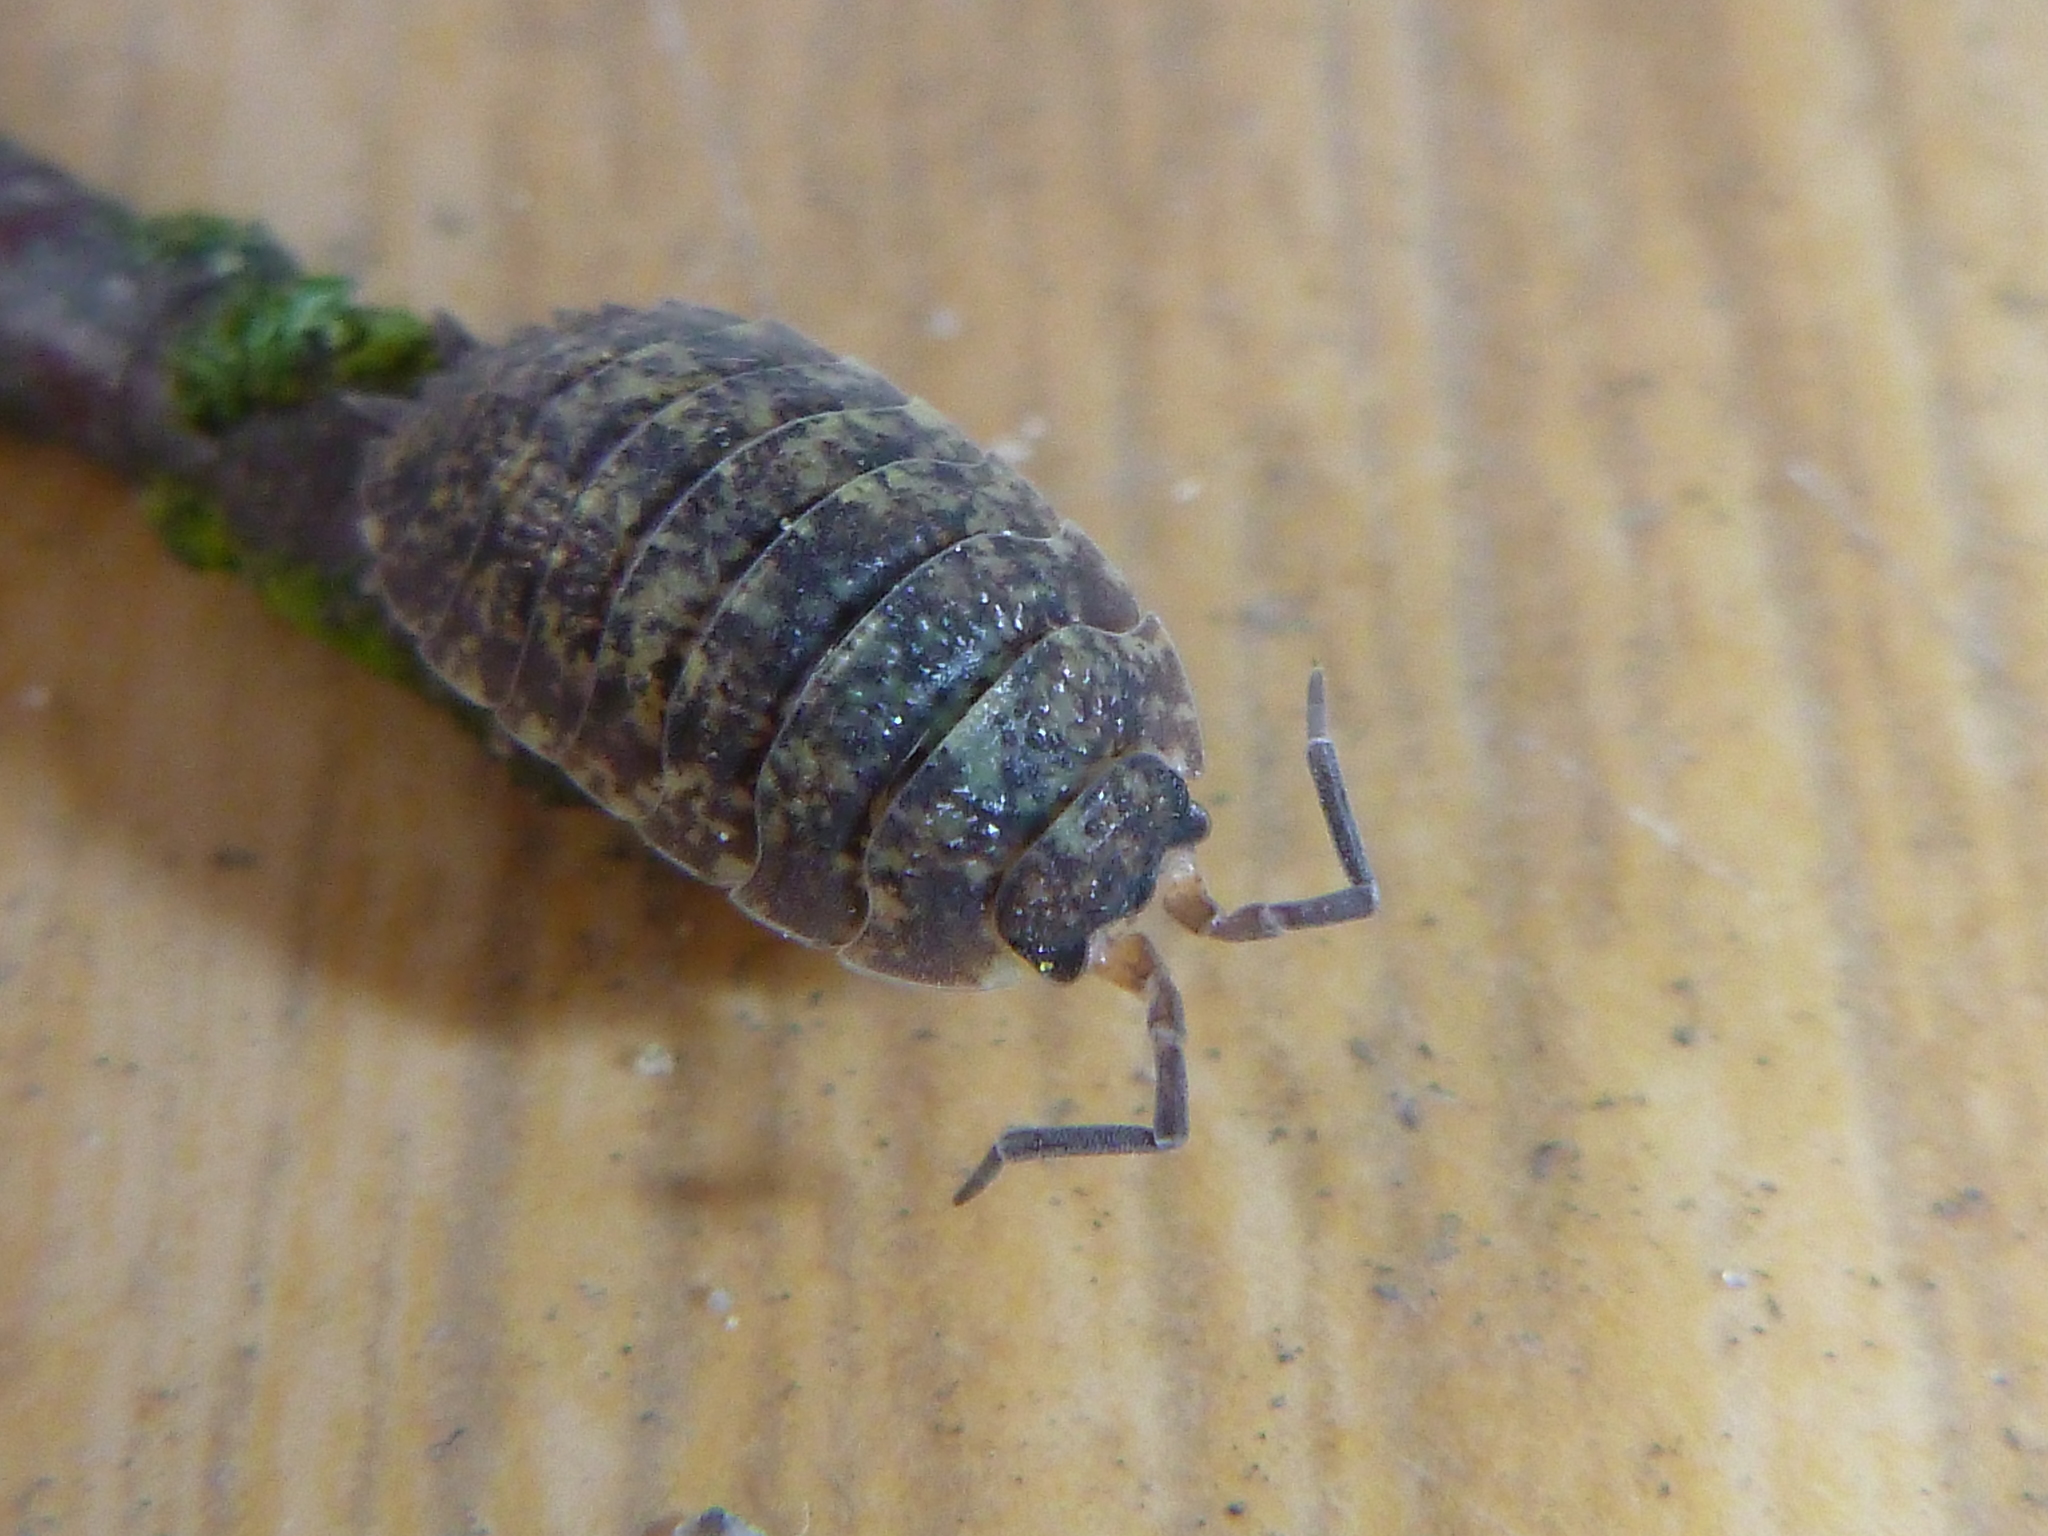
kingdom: Animalia
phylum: Arthropoda
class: Malacostraca
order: Isopoda
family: Porcellionidae
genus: Porcellio
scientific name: Porcellio scaber
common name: Common rough woodlouse
